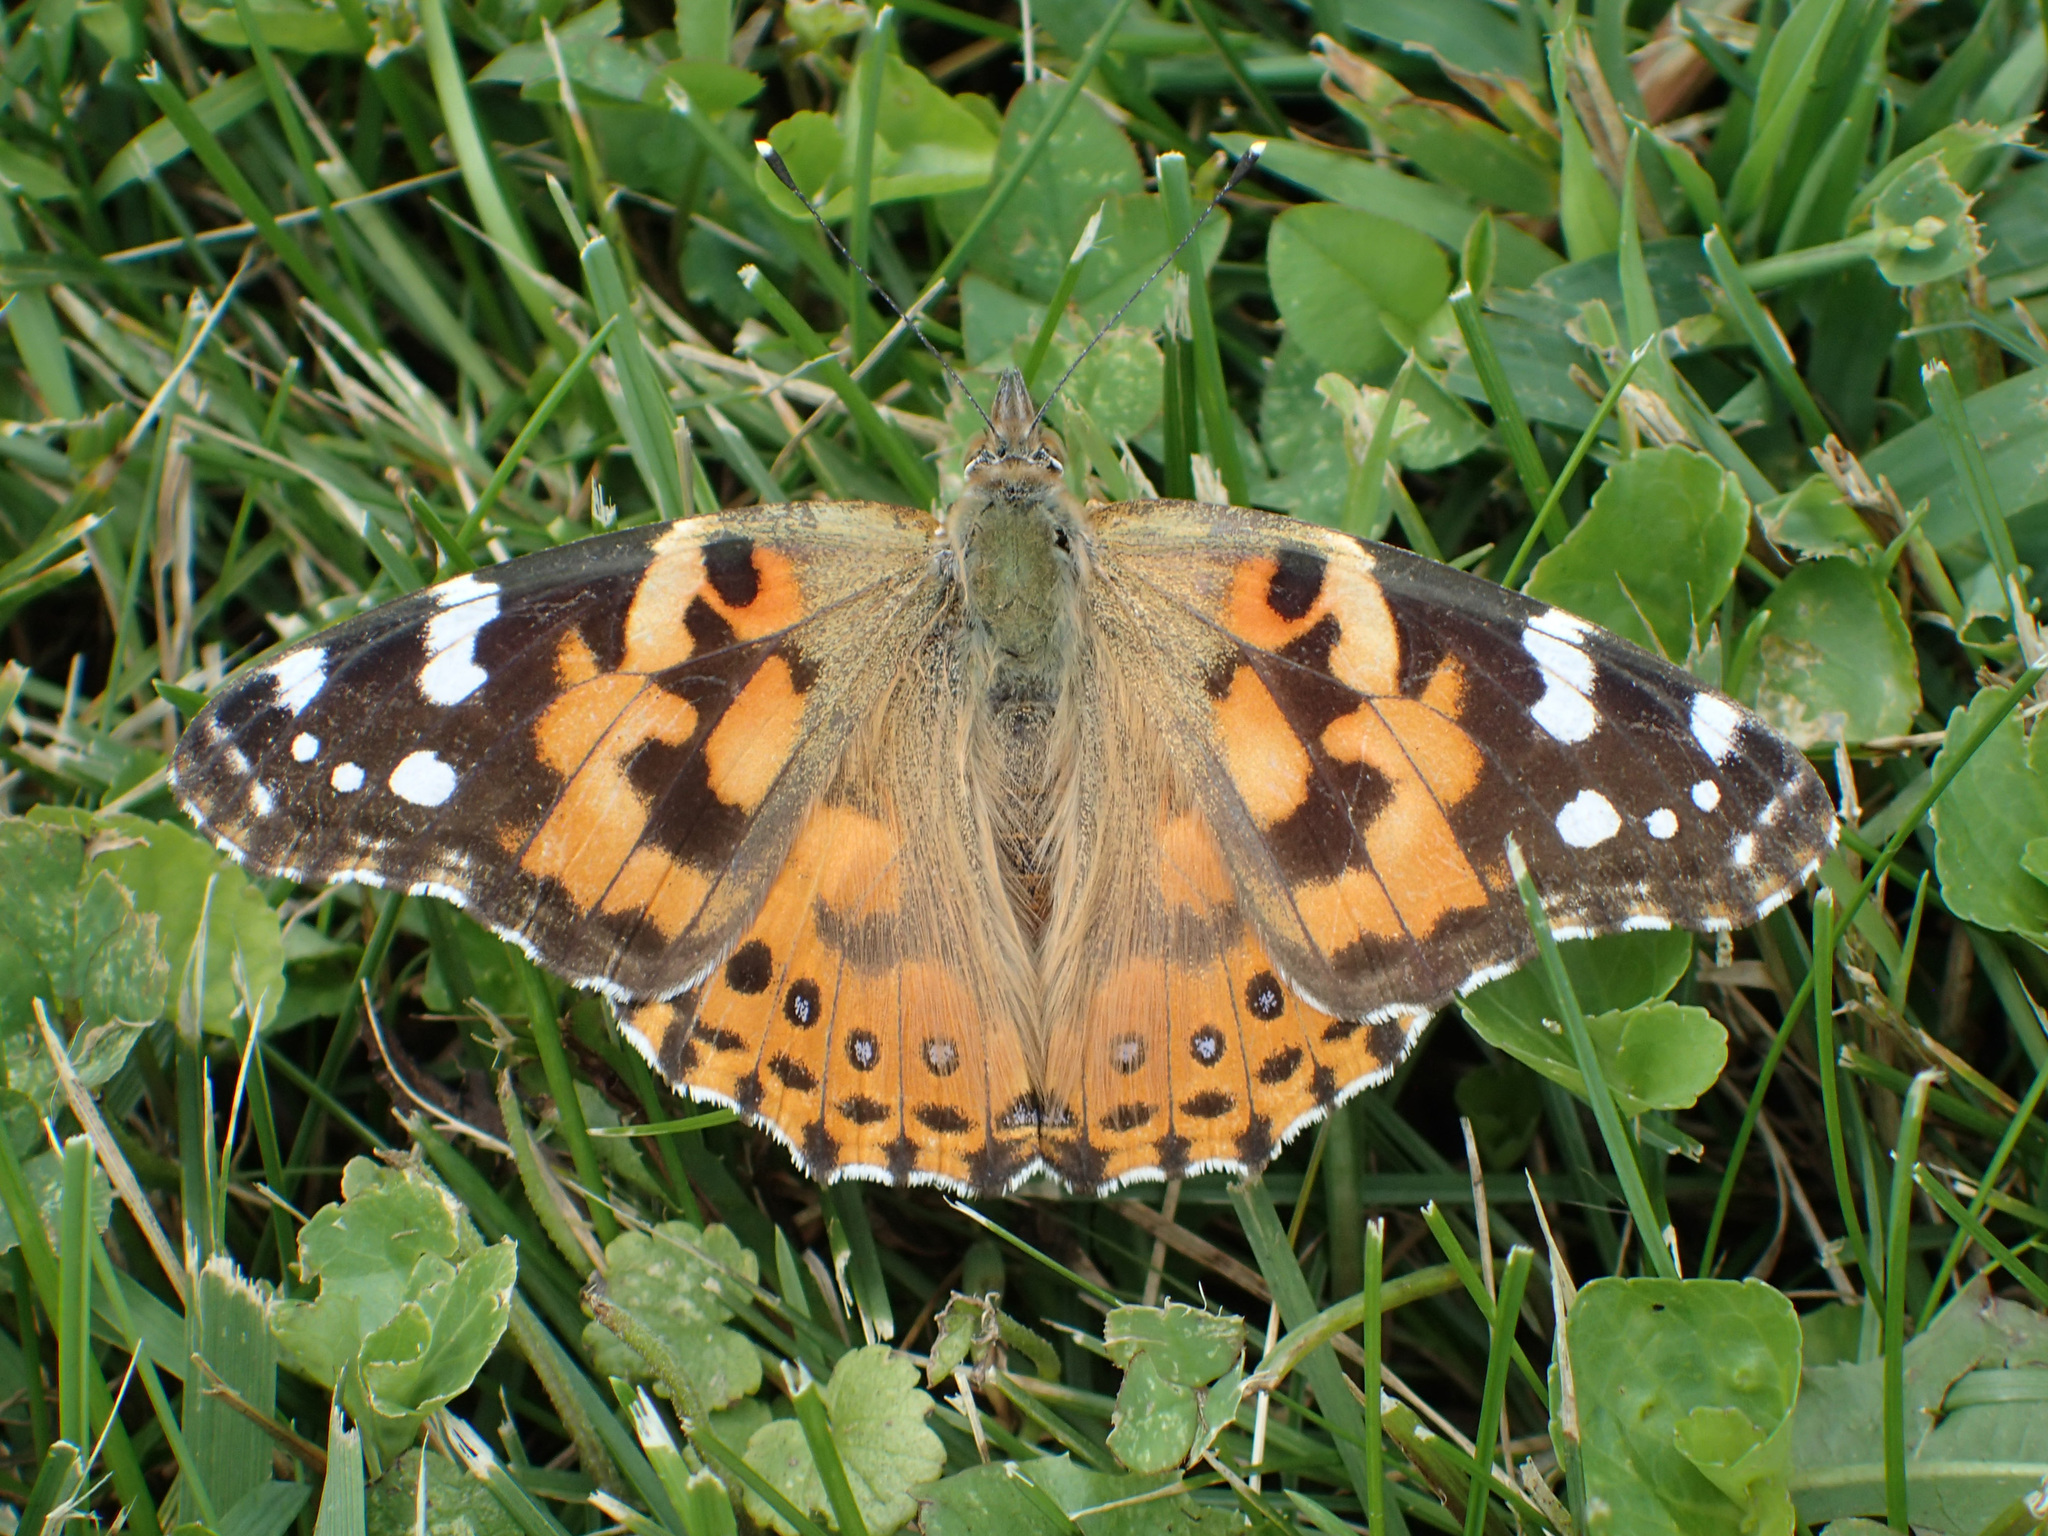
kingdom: Animalia
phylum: Arthropoda
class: Insecta
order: Lepidoptera
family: Nymphalidae
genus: Vanessa
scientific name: Vanessa cardui
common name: Painted lady
